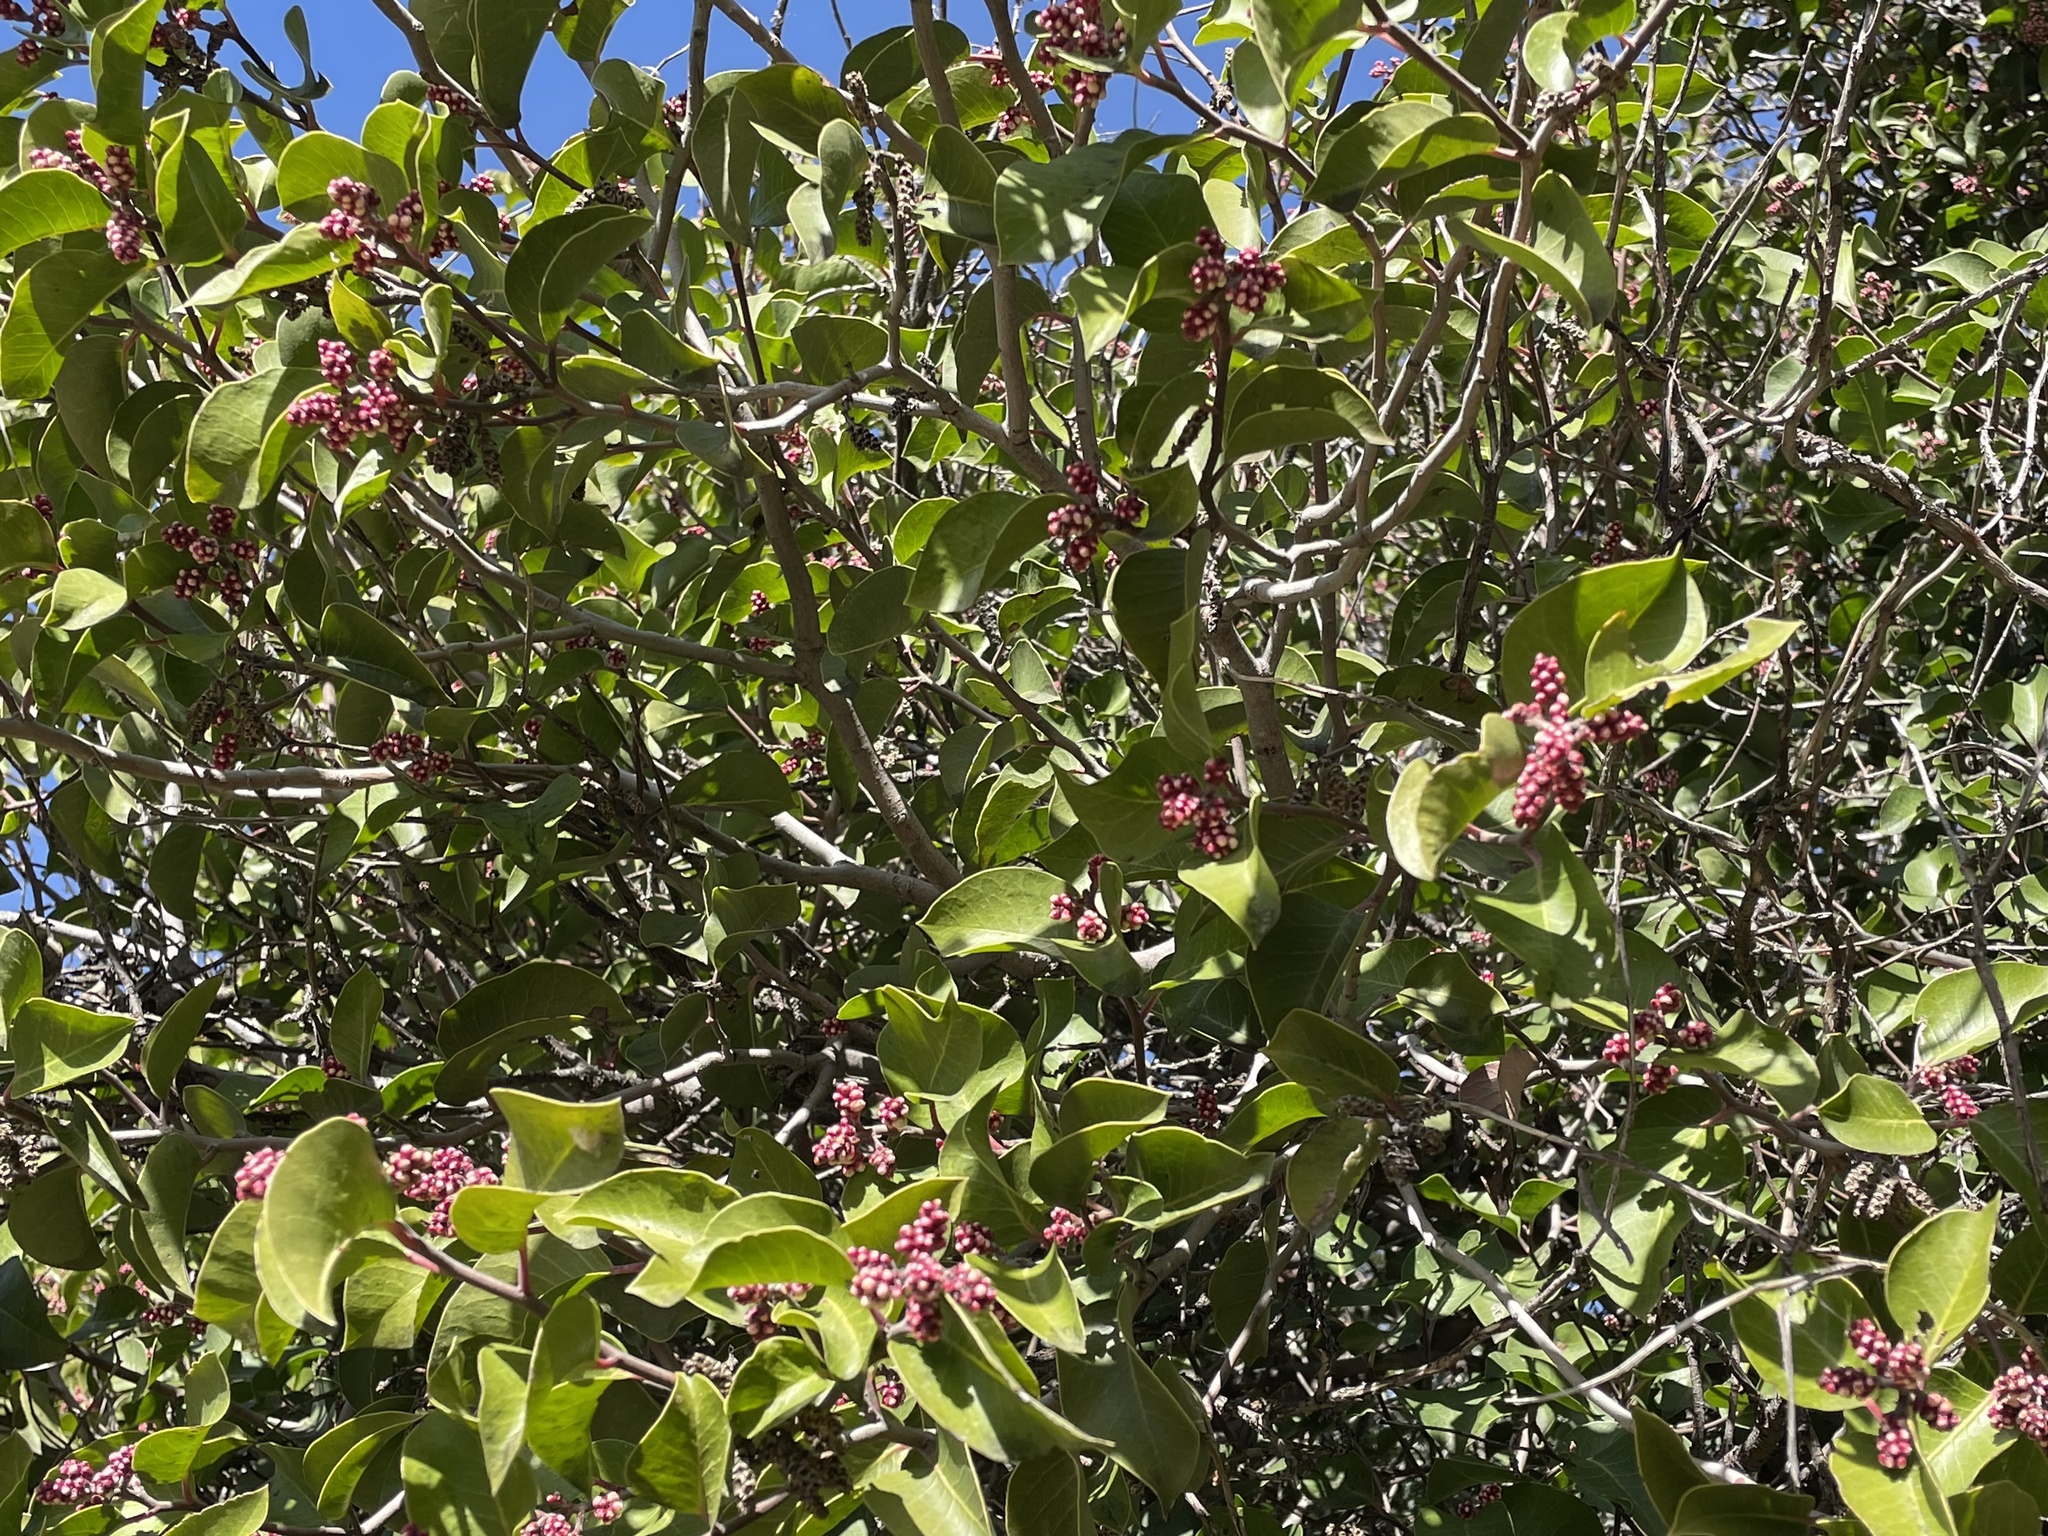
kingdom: Plantae
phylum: Tracheophyta
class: Magnoliopsida
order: Sapindales
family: Anacardiaceae
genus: Rhus
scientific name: Rhus ovata
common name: Sugar sumac
